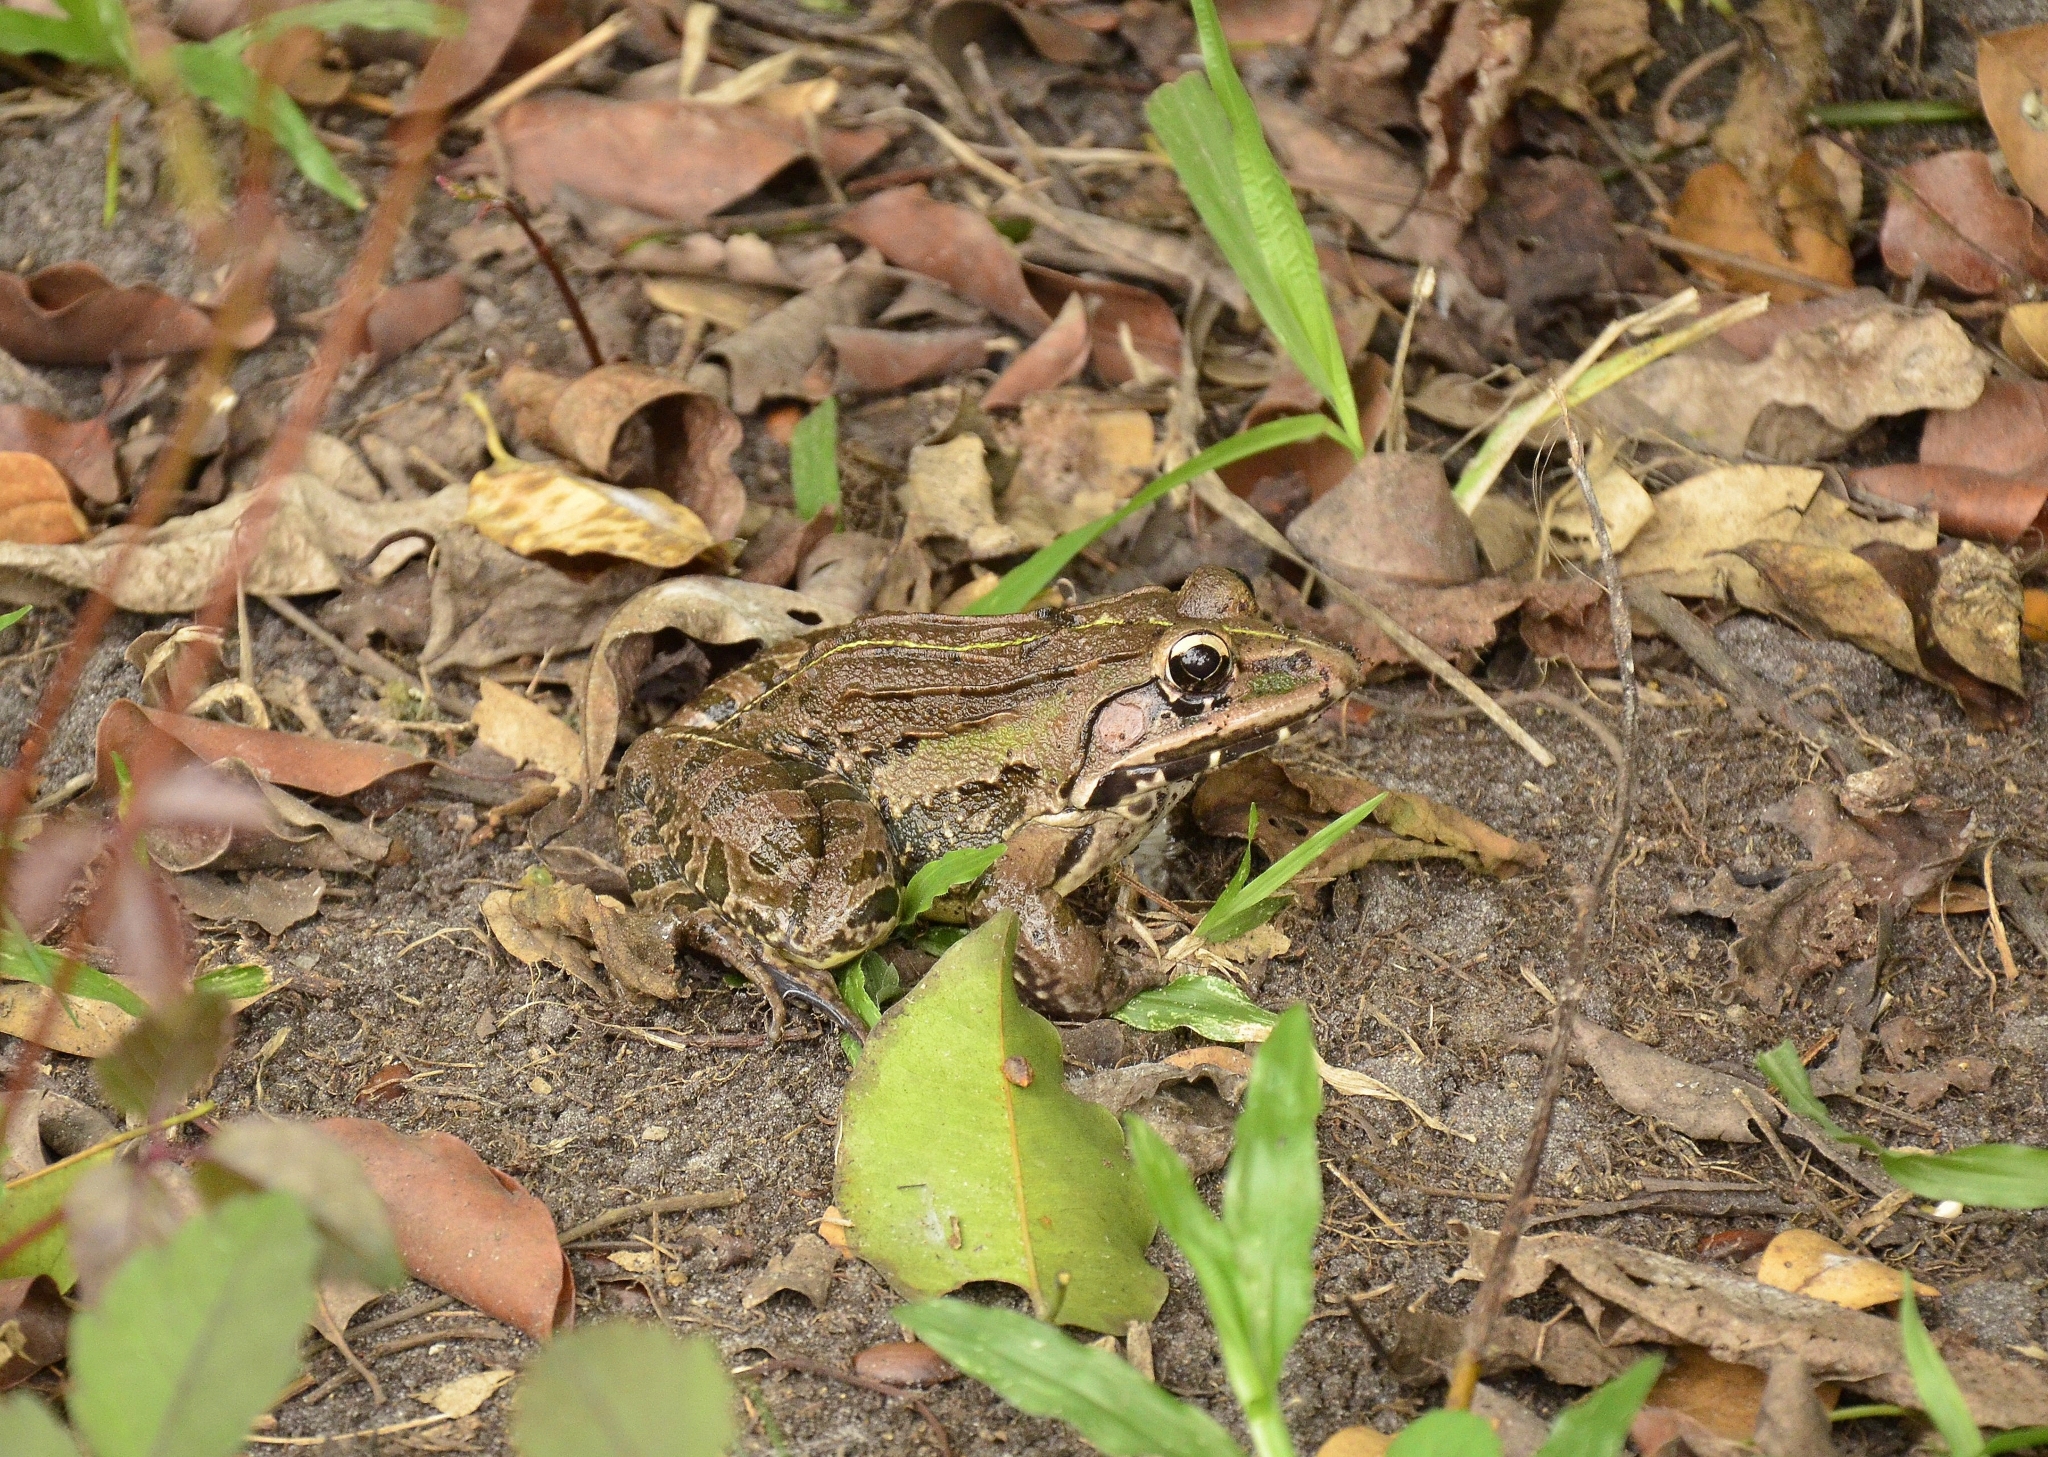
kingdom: Animalia
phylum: Chordata
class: Amphibia
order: Anura
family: Dicroglossidae
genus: Hoplobatrachus
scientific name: Hoplobatrachus tigerinus
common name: Indian bullfrog
